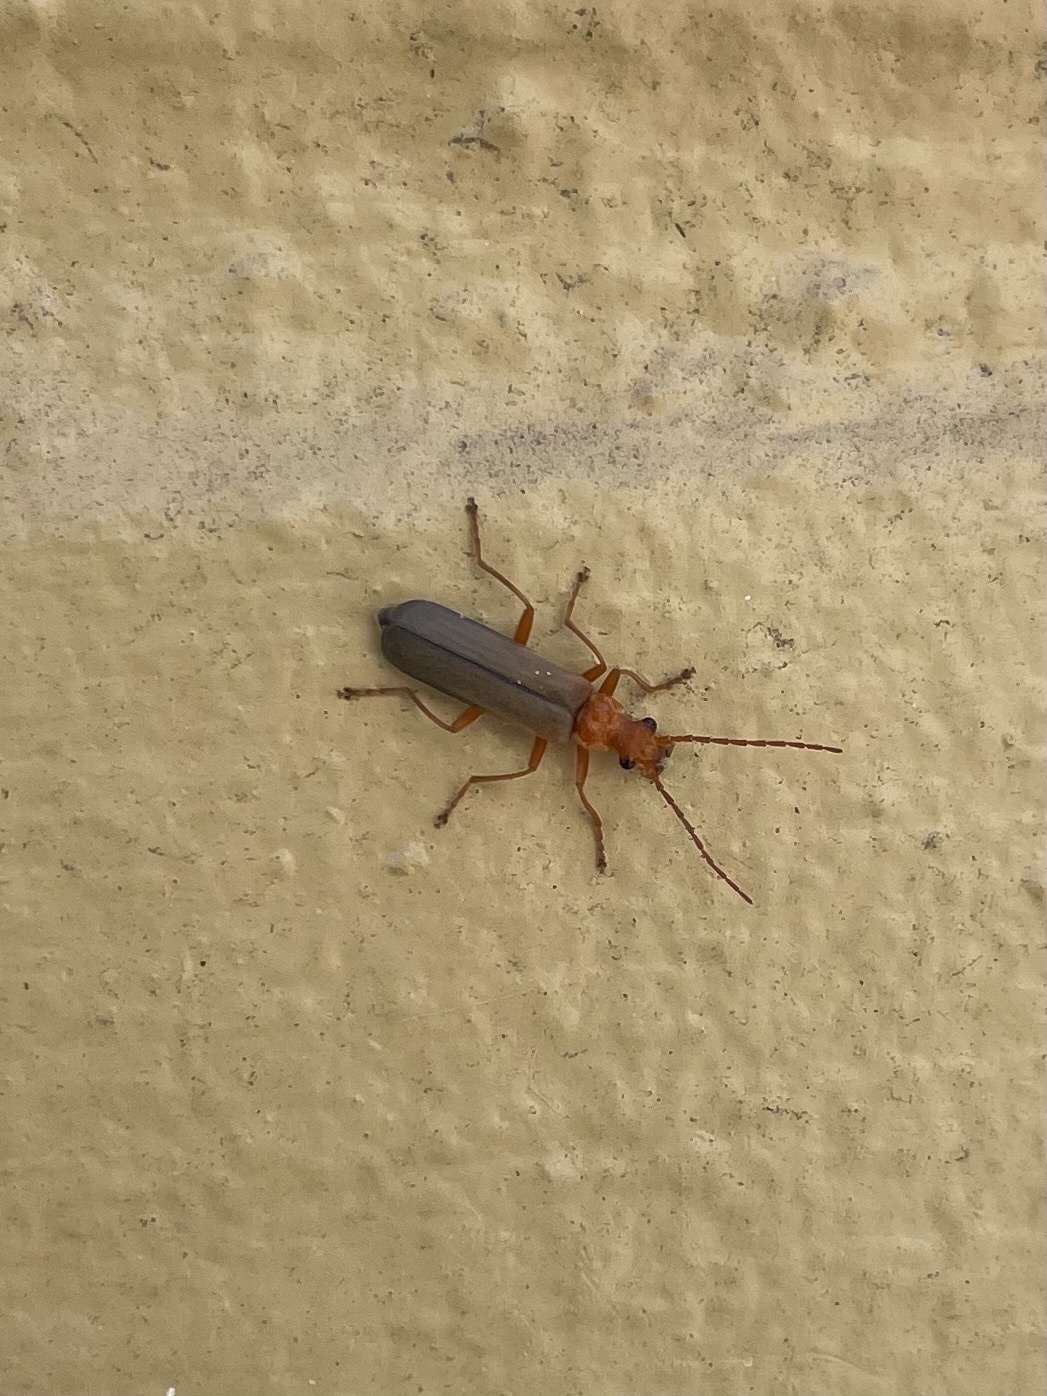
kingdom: Animalia
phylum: Arthropoda
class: Insecta
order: Coleoptera
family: Cantharidae
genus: Podabrus
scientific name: Podabrus pruinosus
